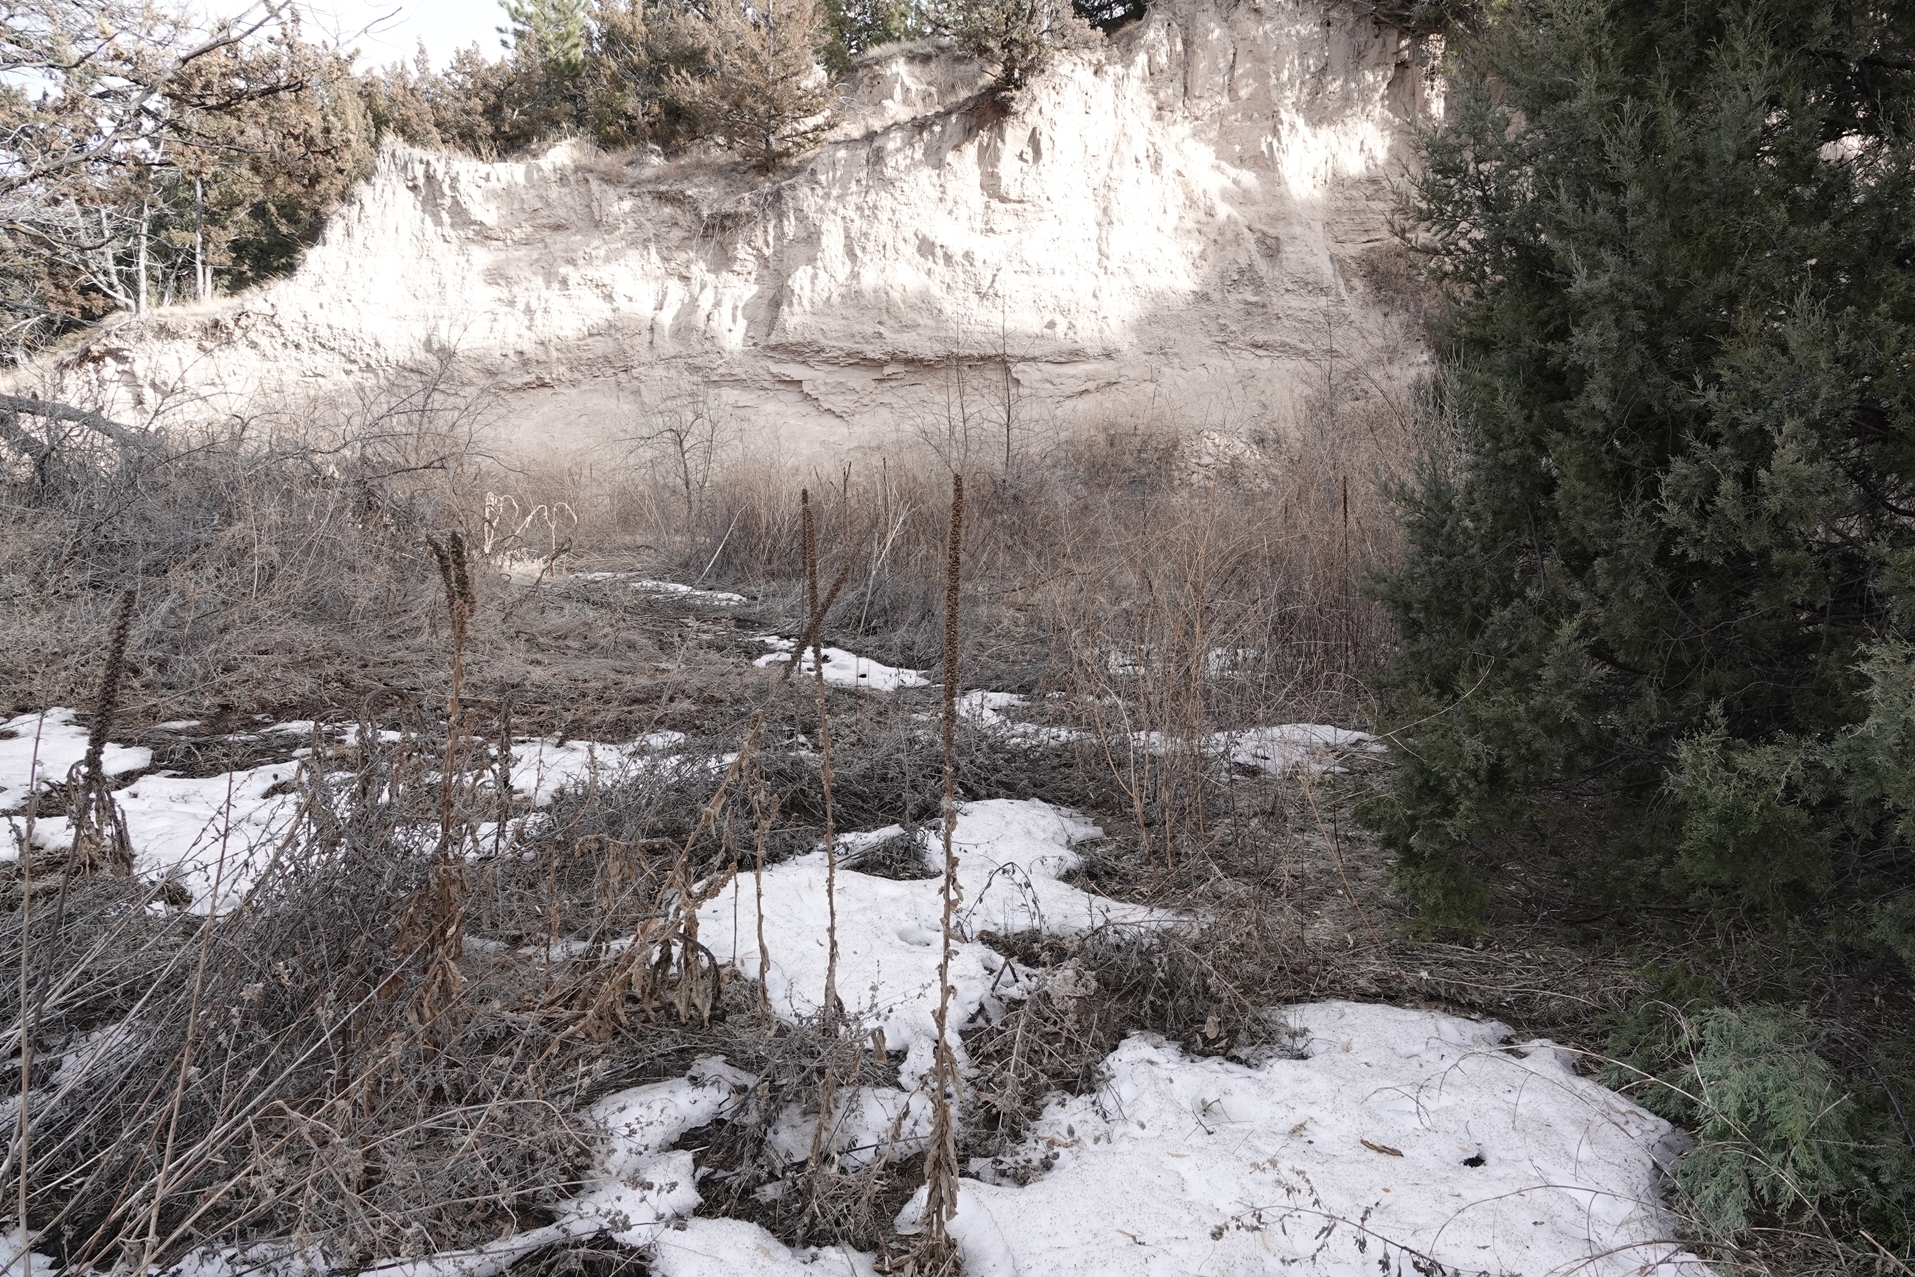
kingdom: Plantae
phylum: Tracheophyta
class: Magnoliopsida
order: Lamiales
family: Scrophulariaceae
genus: Verbascum
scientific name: Verbascum thapsus
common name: Common mullein
